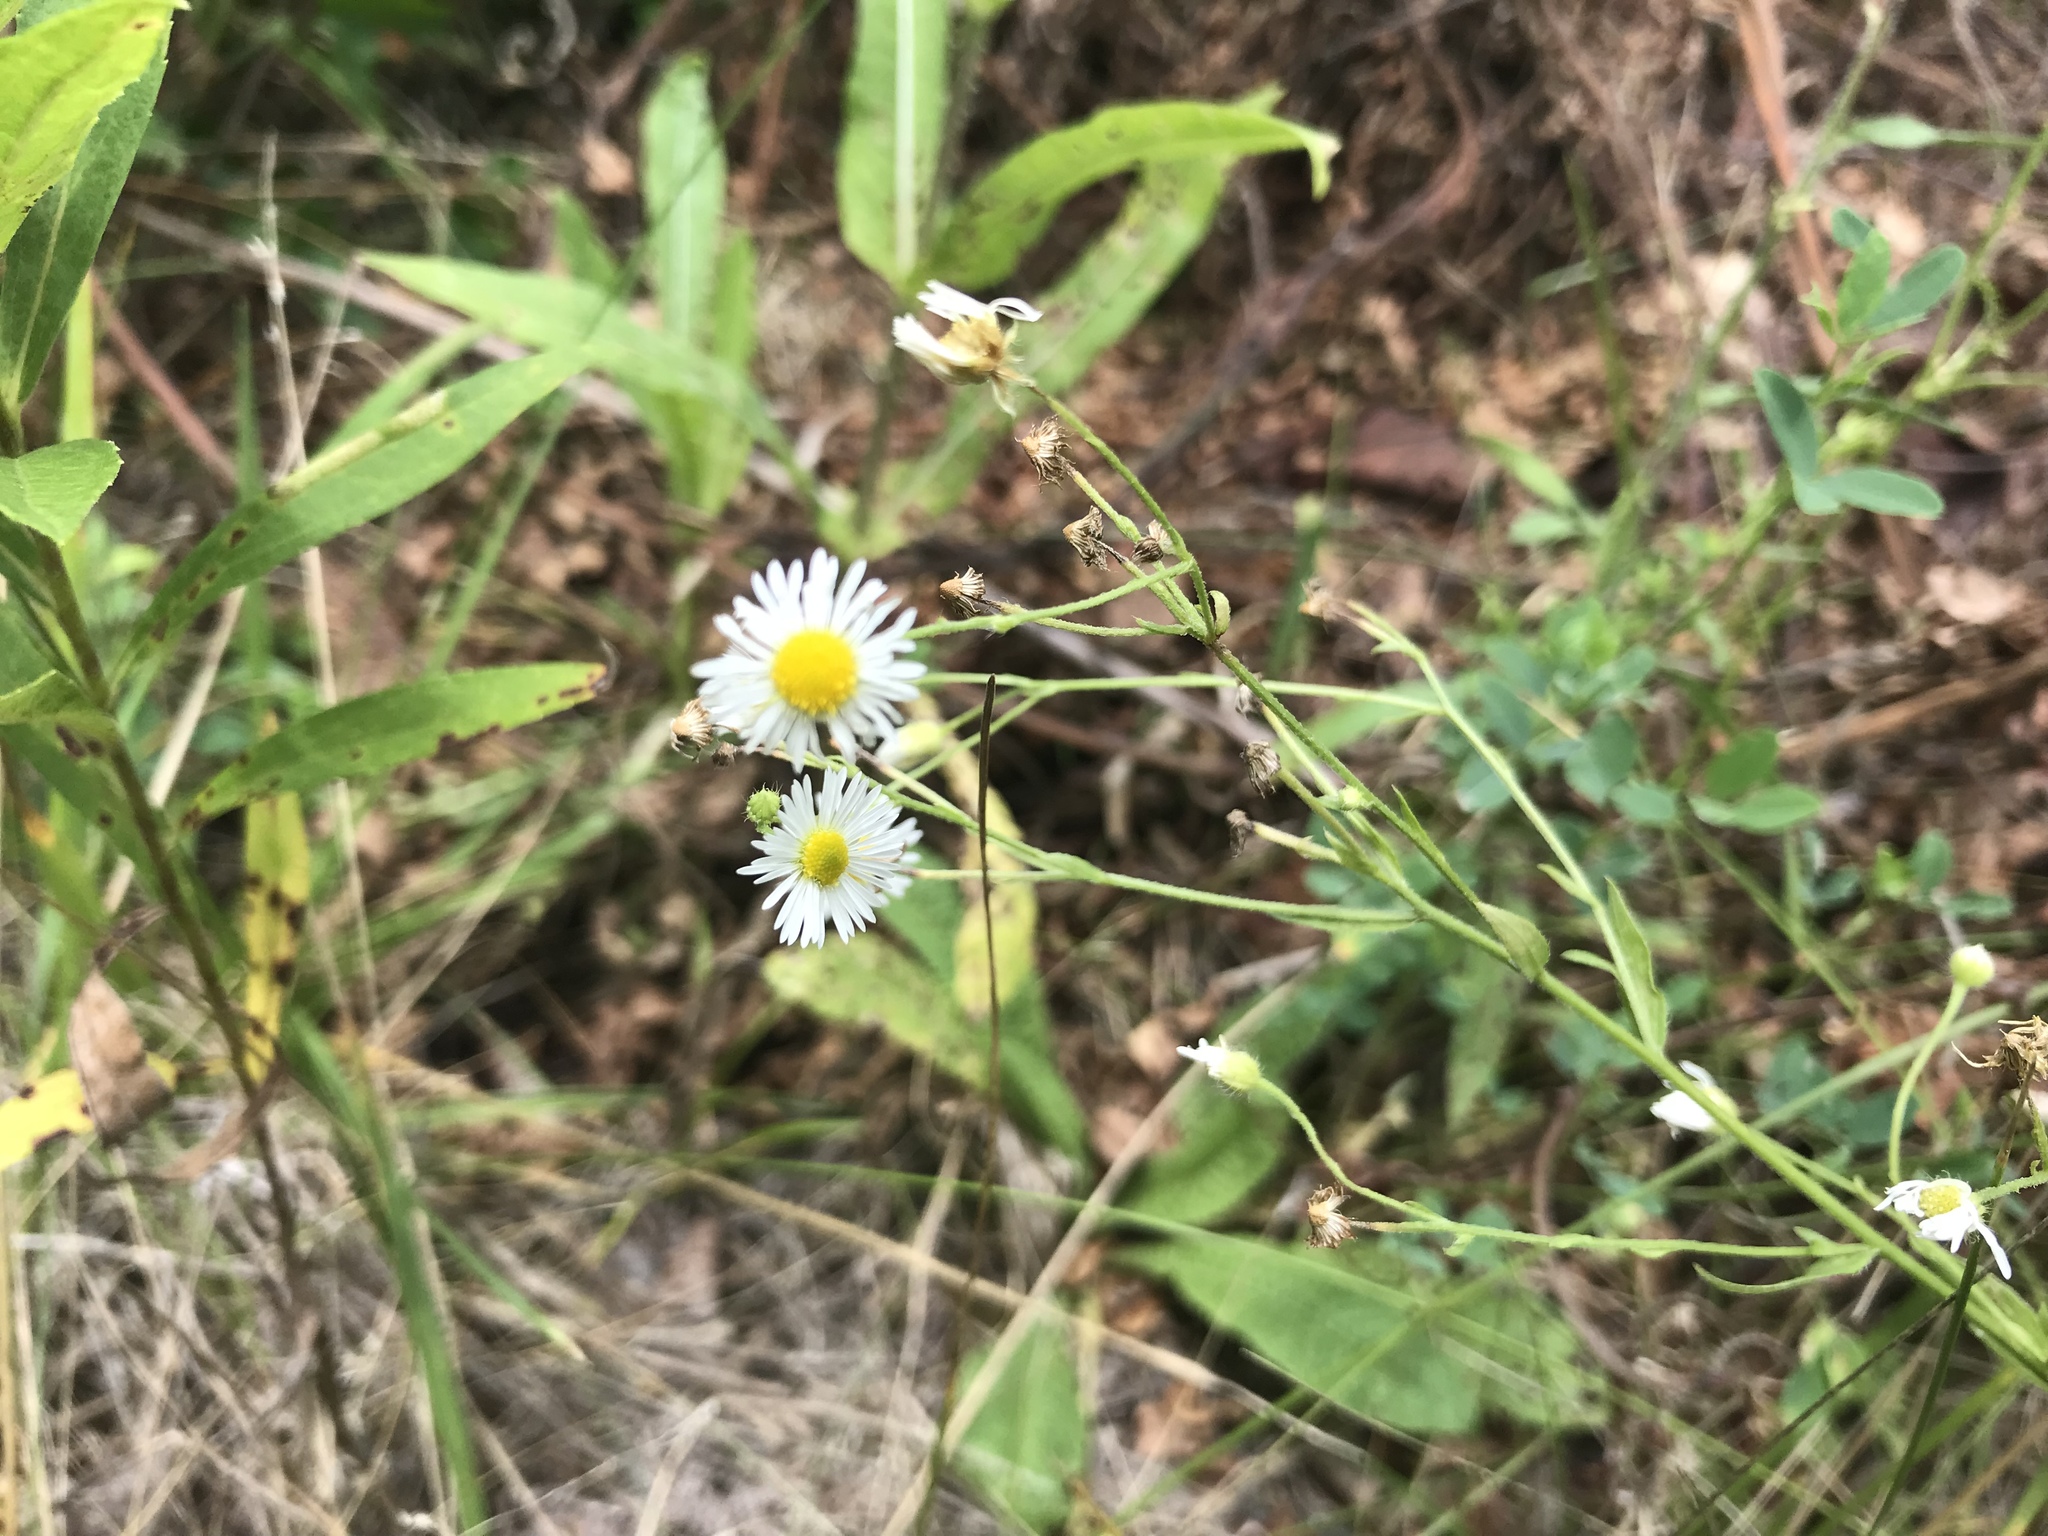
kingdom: Plantae
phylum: Tracheophyta
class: Magnoliopsida
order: Asterales
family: Asteraceae
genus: Erigeron
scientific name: Erigeron annuus
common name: Tall fleabane
